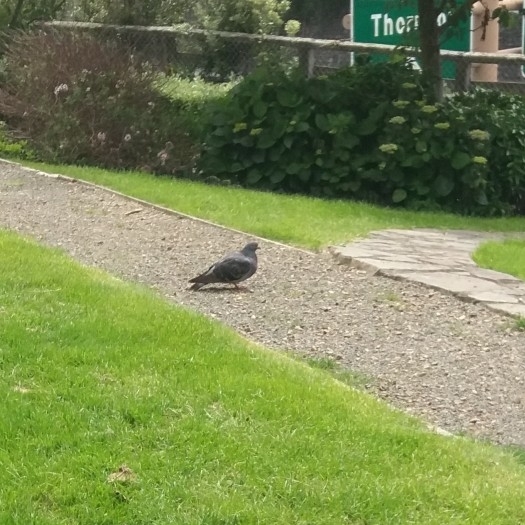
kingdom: Animalia
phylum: Chordata
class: Aves
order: Columbiformes
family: Columbidae
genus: Columba
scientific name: Columba livia
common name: Rock pigeon
